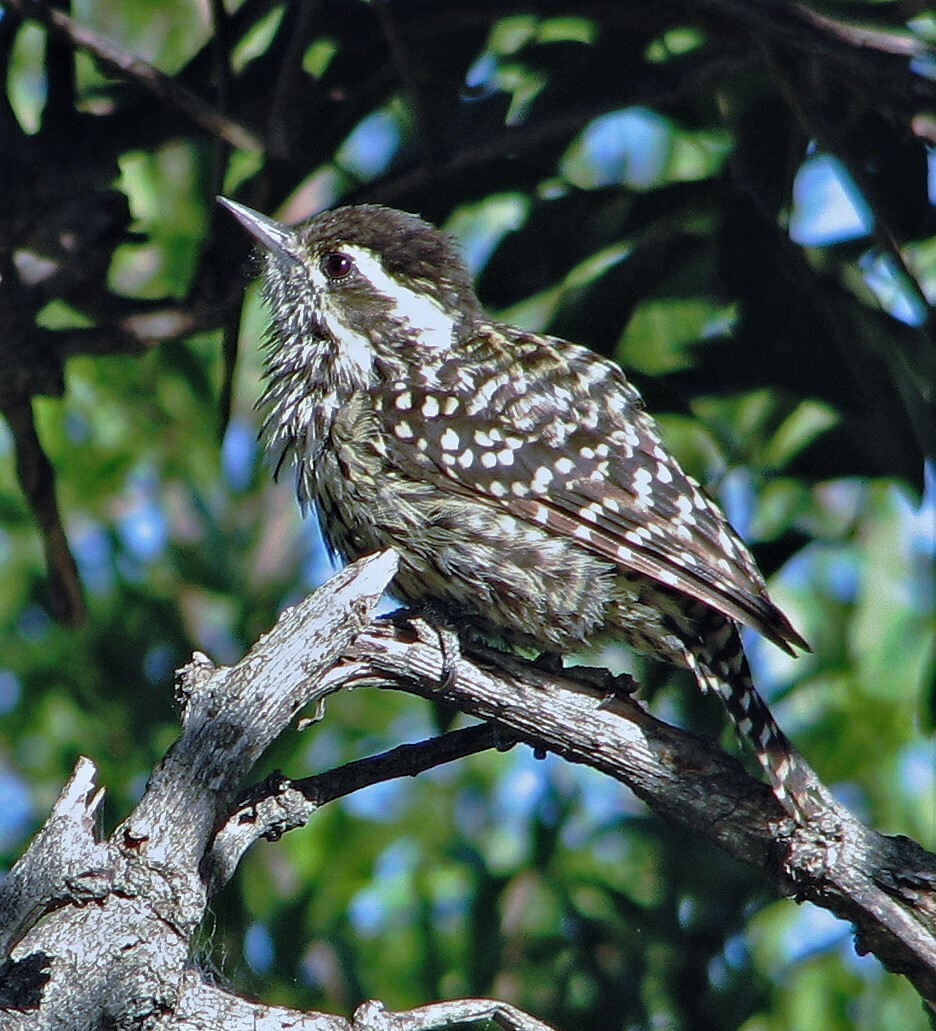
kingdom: Animalia
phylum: Chordata
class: Aves
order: Piciformes
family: Picidae
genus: Veniliornis
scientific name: Veniliornis mixtus
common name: Checkered woodpecker
